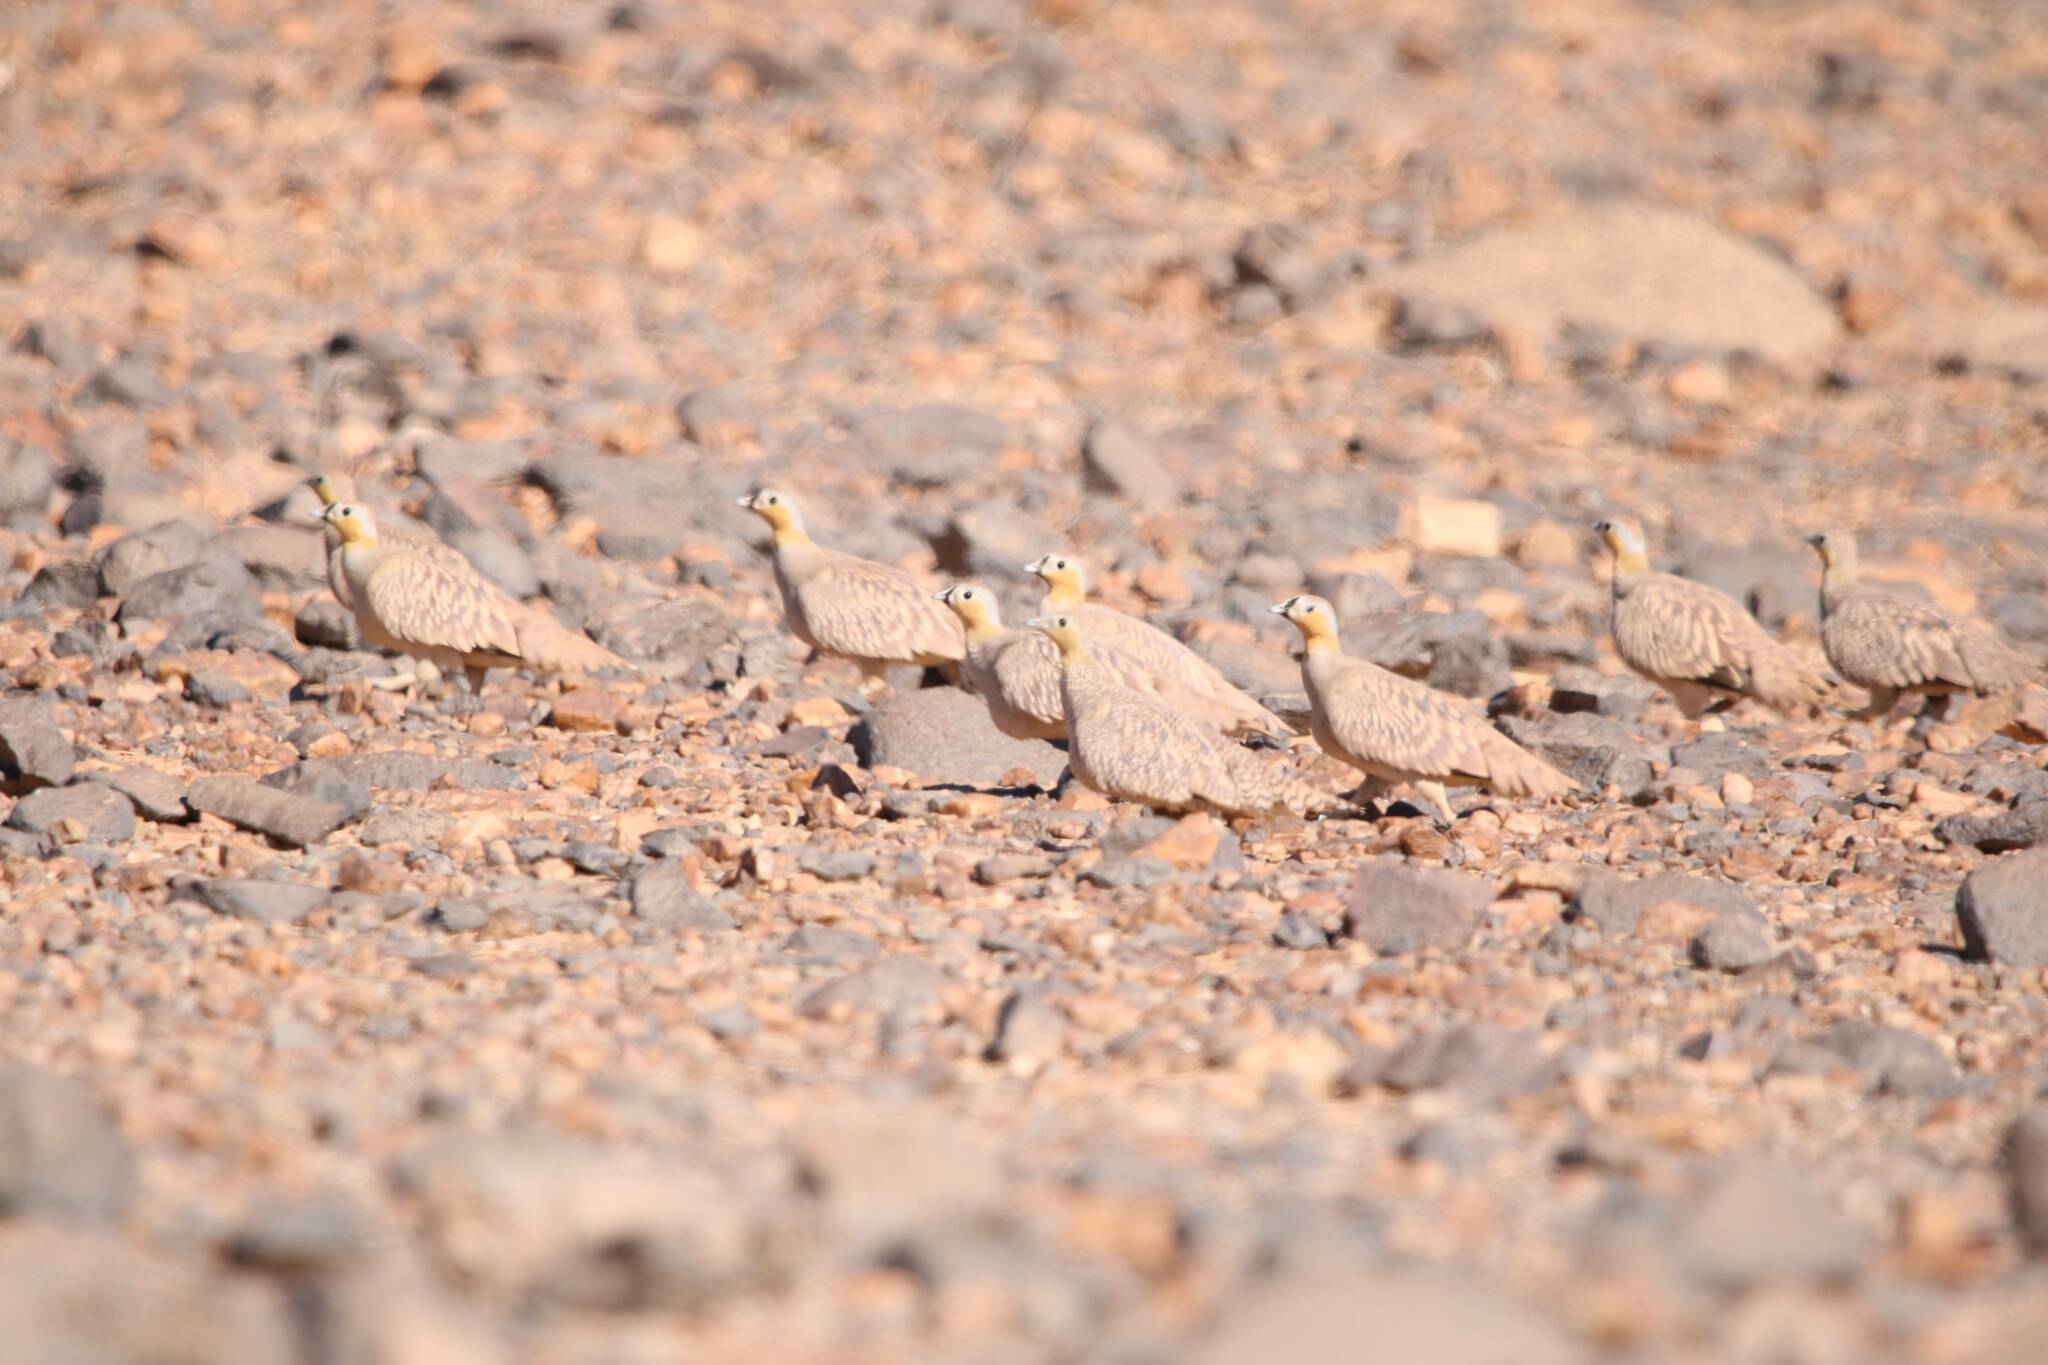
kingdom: Animalia
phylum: Chordata
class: Aves
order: Pteroclidiformes
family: Pteroclididae
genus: Pterocles
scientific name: Pterocles coronatus
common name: Crowned sandgrouse
